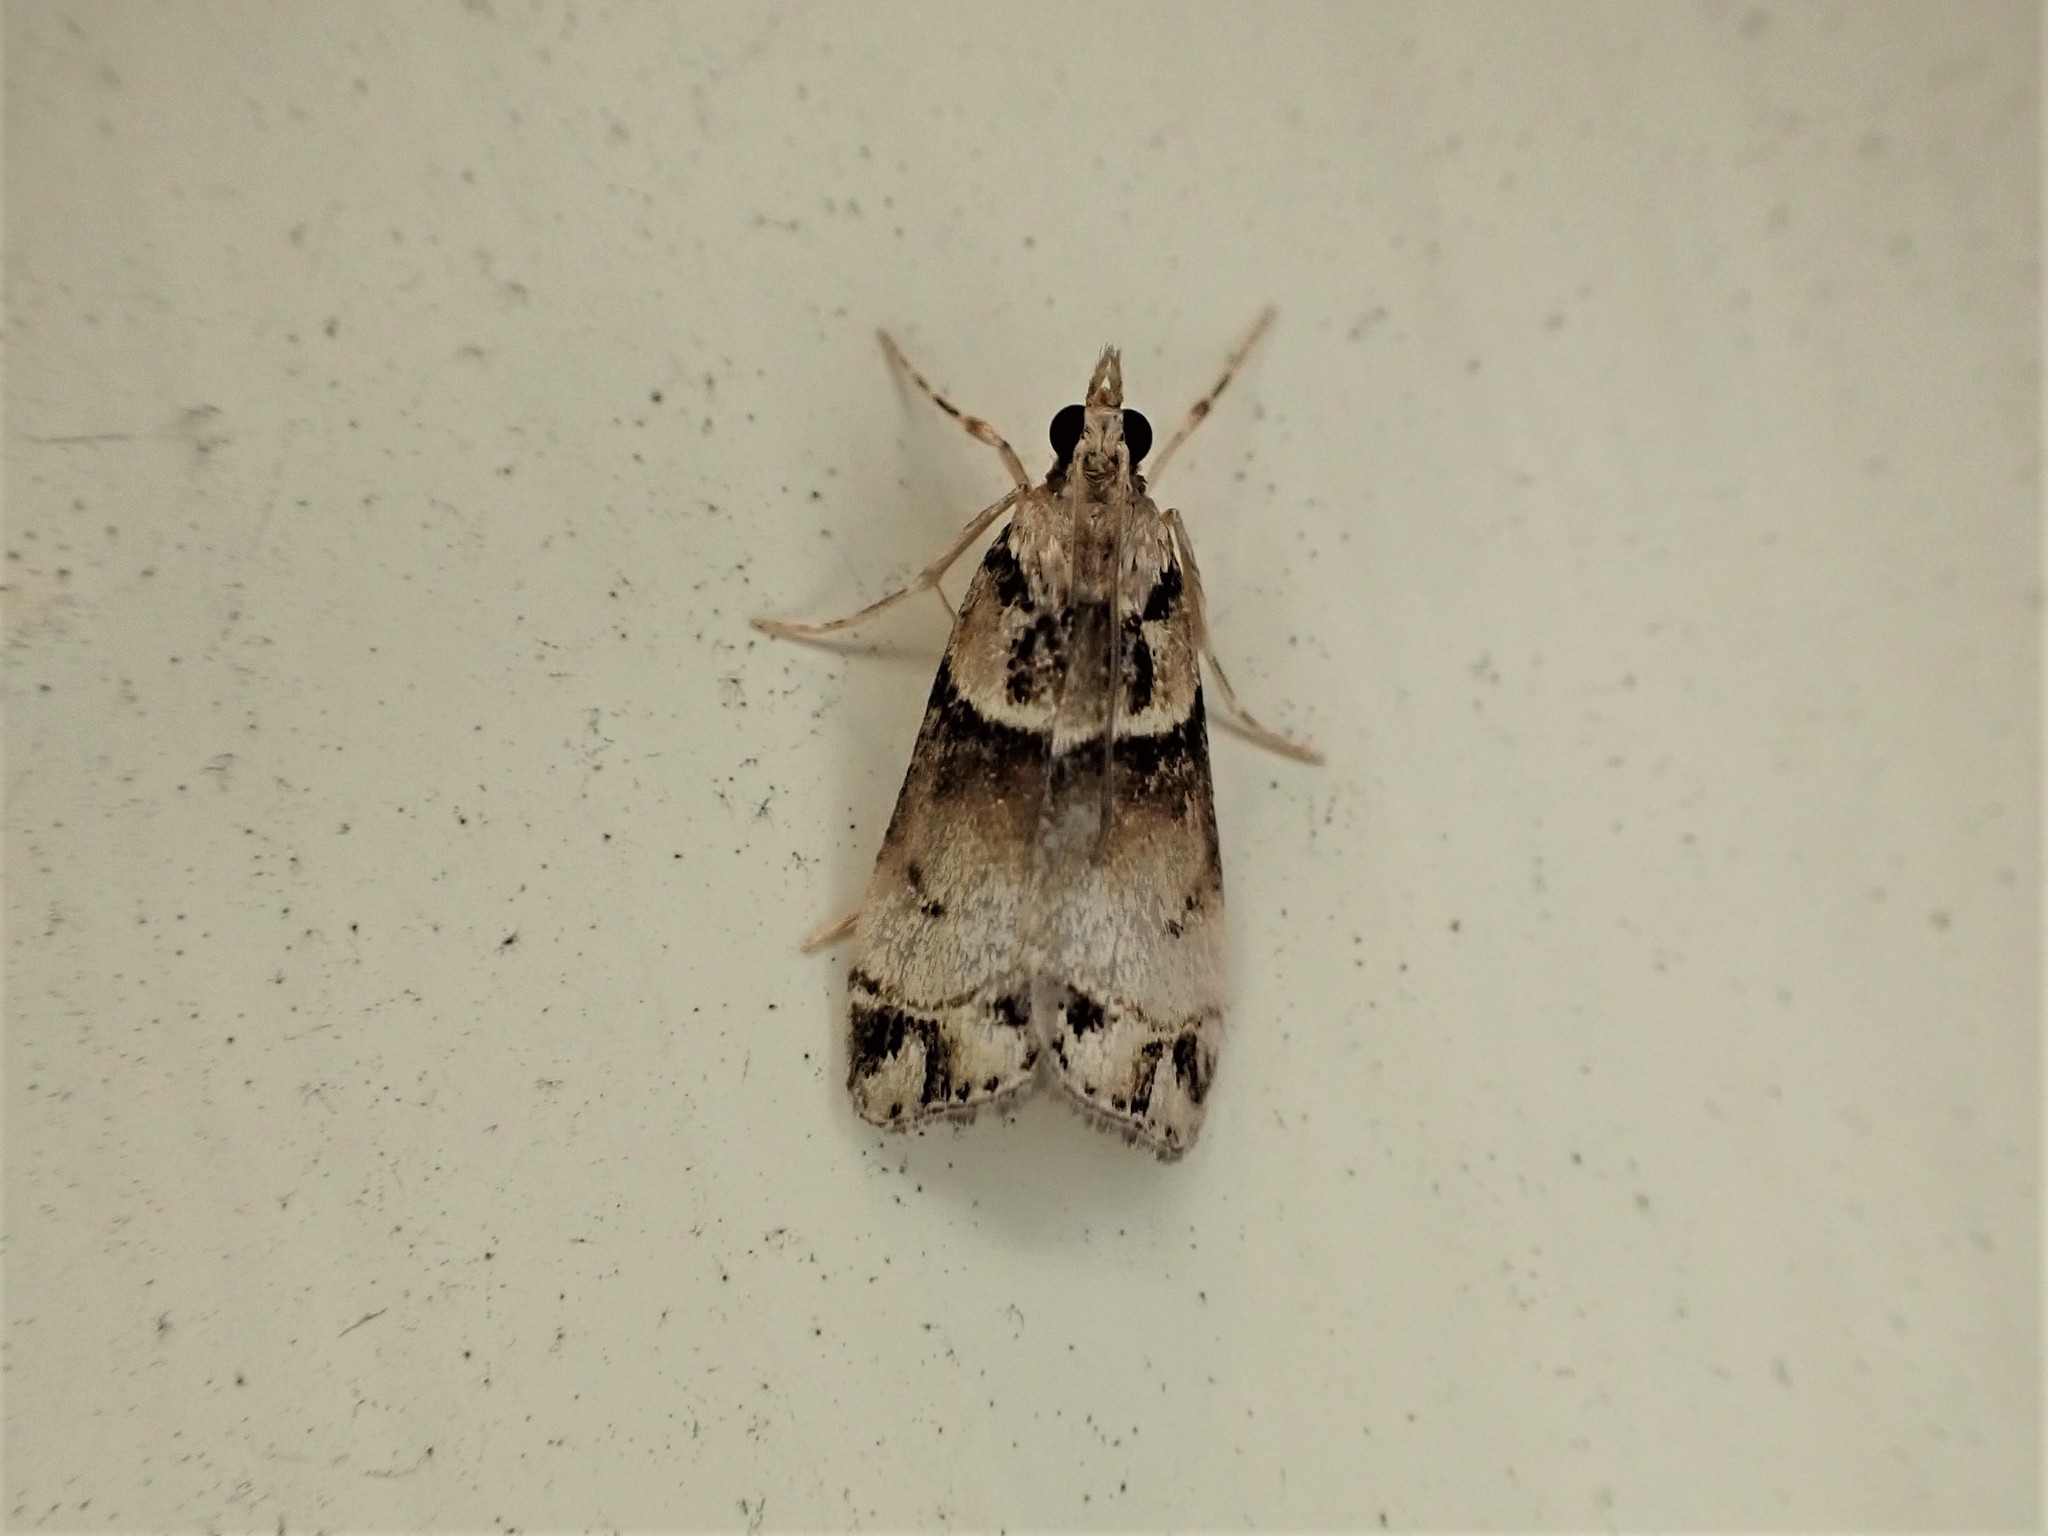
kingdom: Animalia
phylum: Arthropoda
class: Insecta
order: Lepidoptera
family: Crambidae
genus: Eudonia
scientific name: Eudonia periphanes
